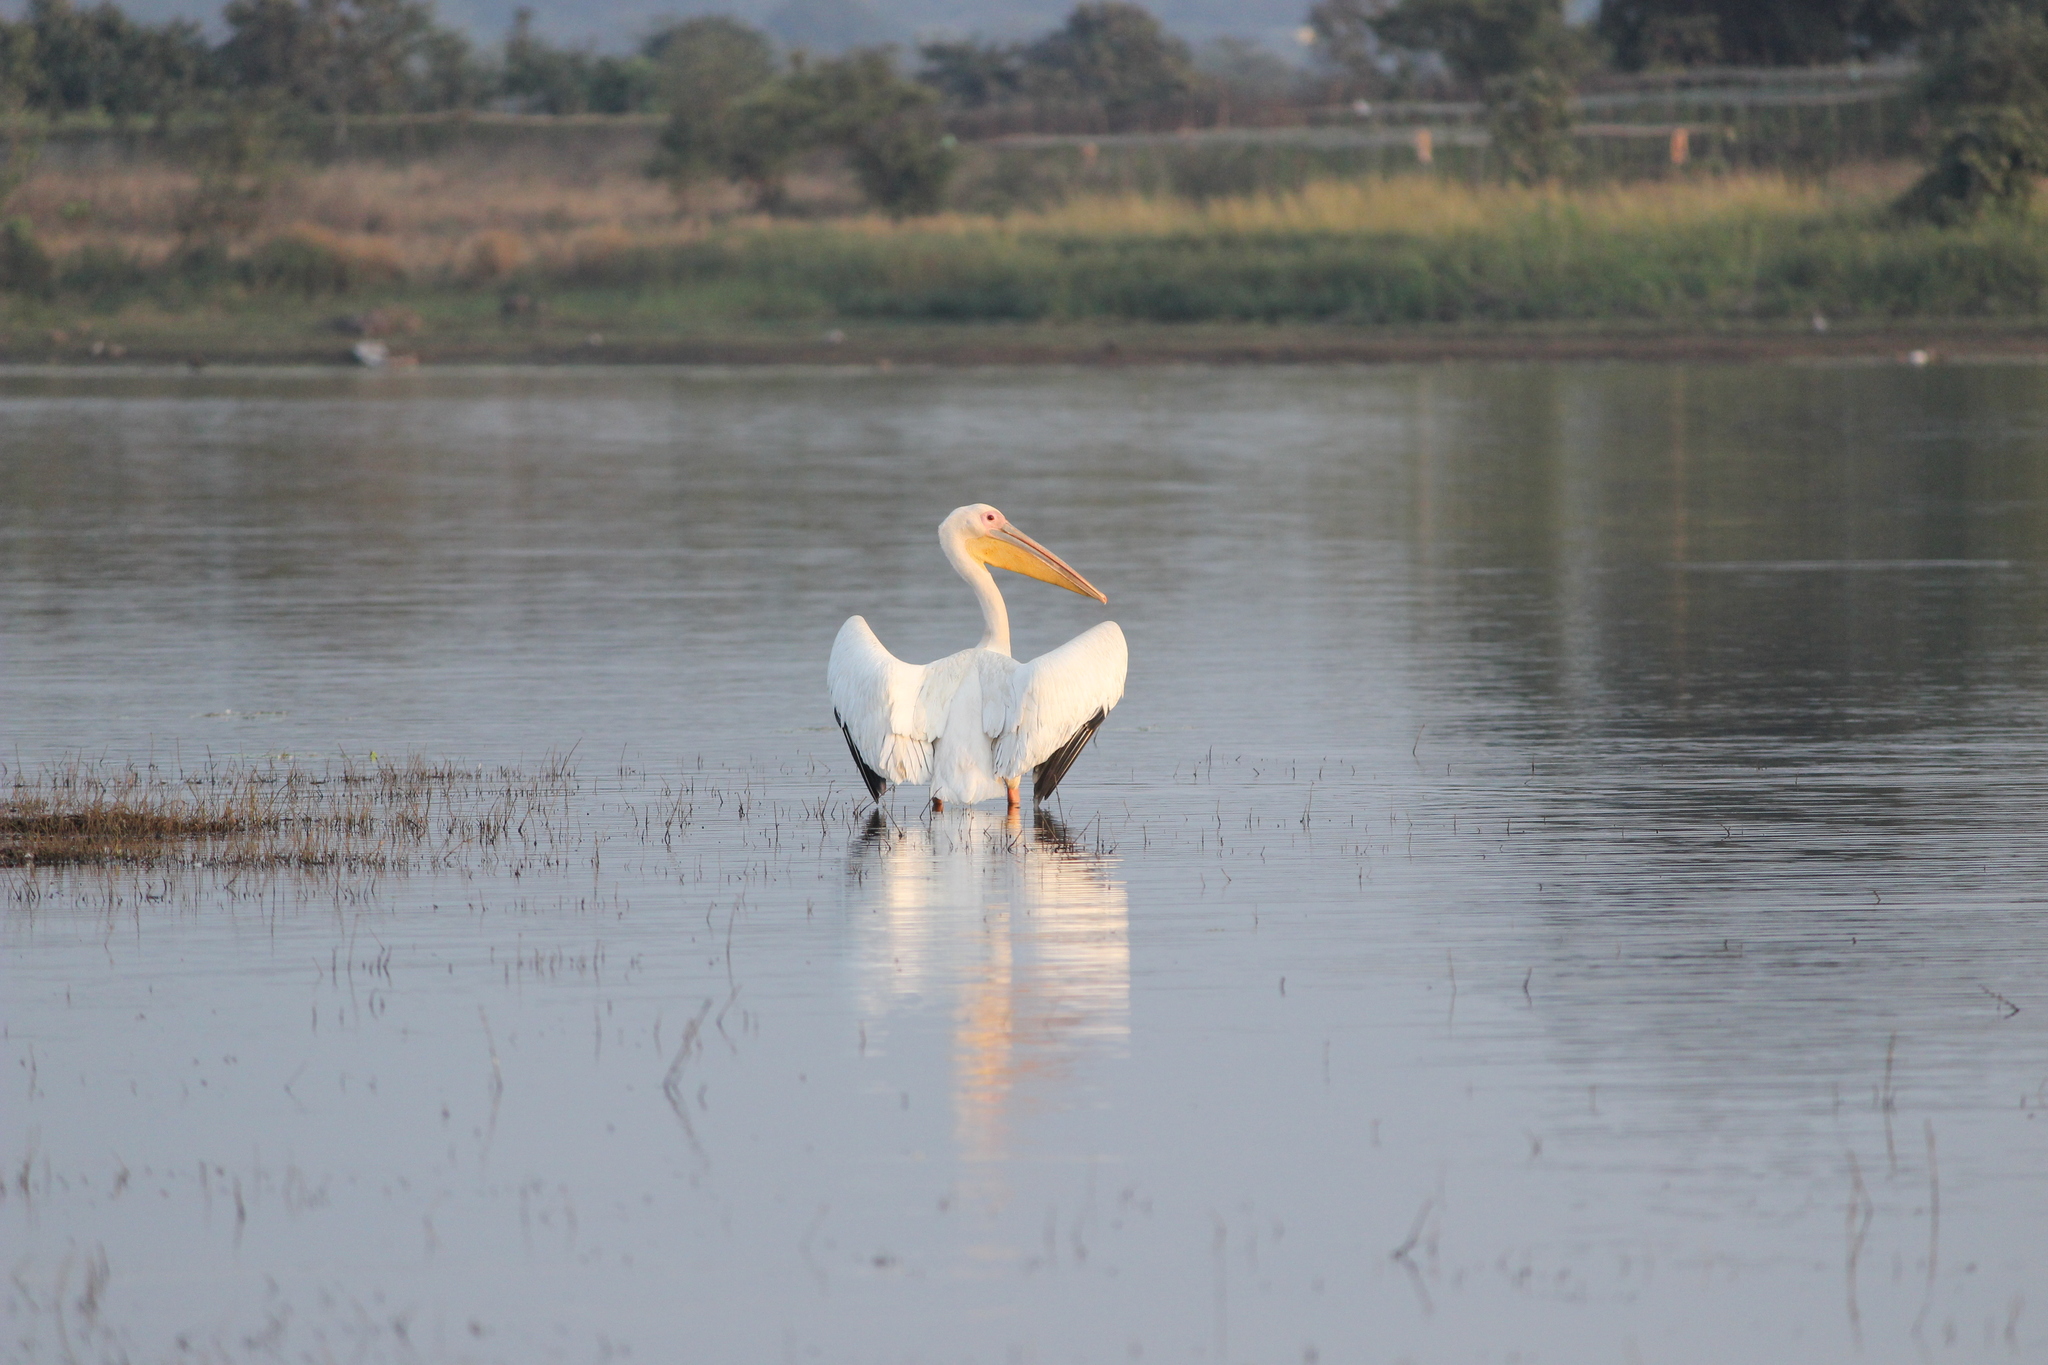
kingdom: Animalia
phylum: Chordata
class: Aves
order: Pelecaniformes
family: Pelecanidae
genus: Pelecanus
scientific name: Pelecanus onocrotalus
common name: Great white pelican
